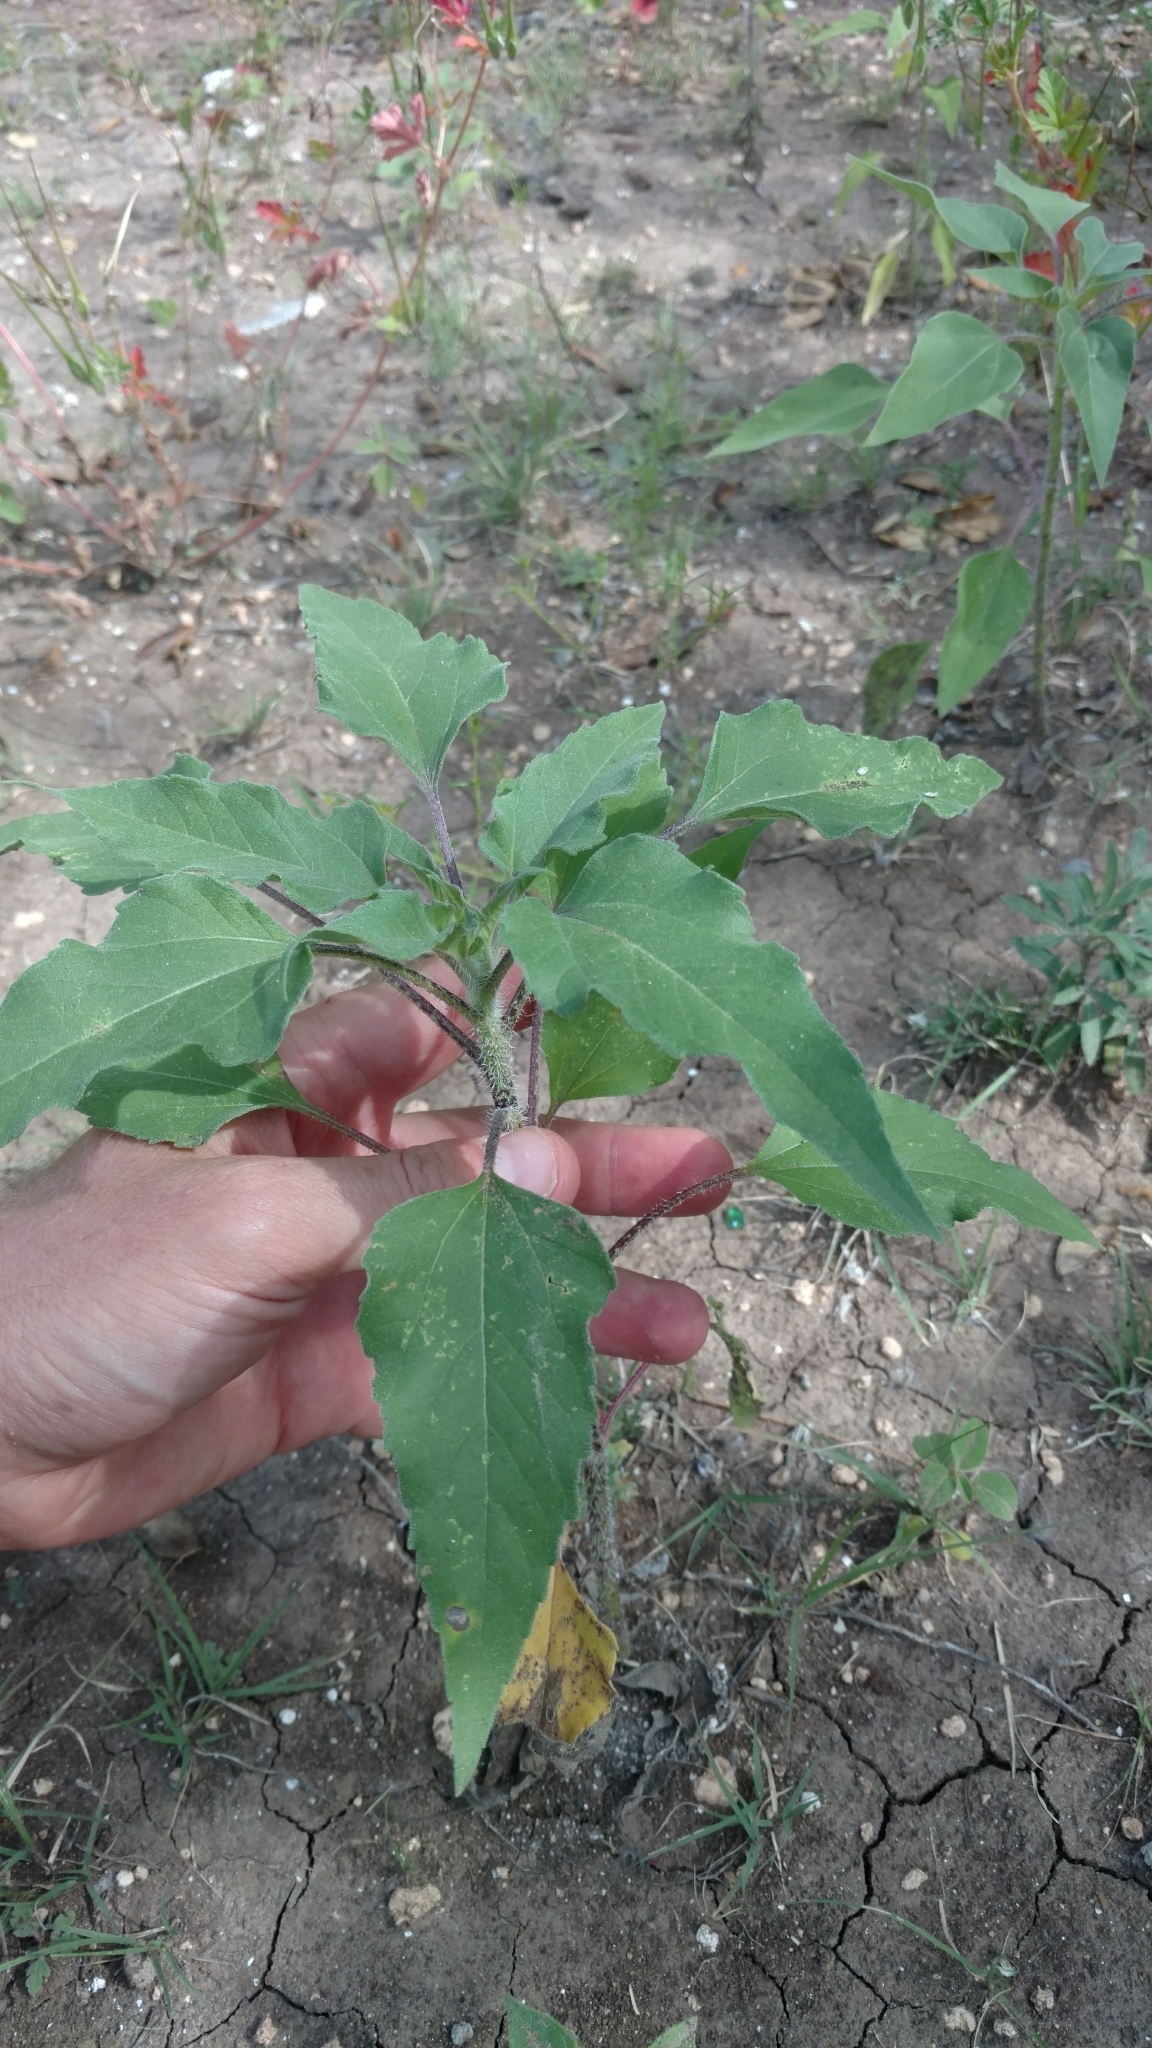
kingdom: Plantae
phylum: Tracheophyta
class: Magnoliopsida
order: Asterales
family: Asteraceae
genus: Helianthus
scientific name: Helianthus annuus
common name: Sunflower
